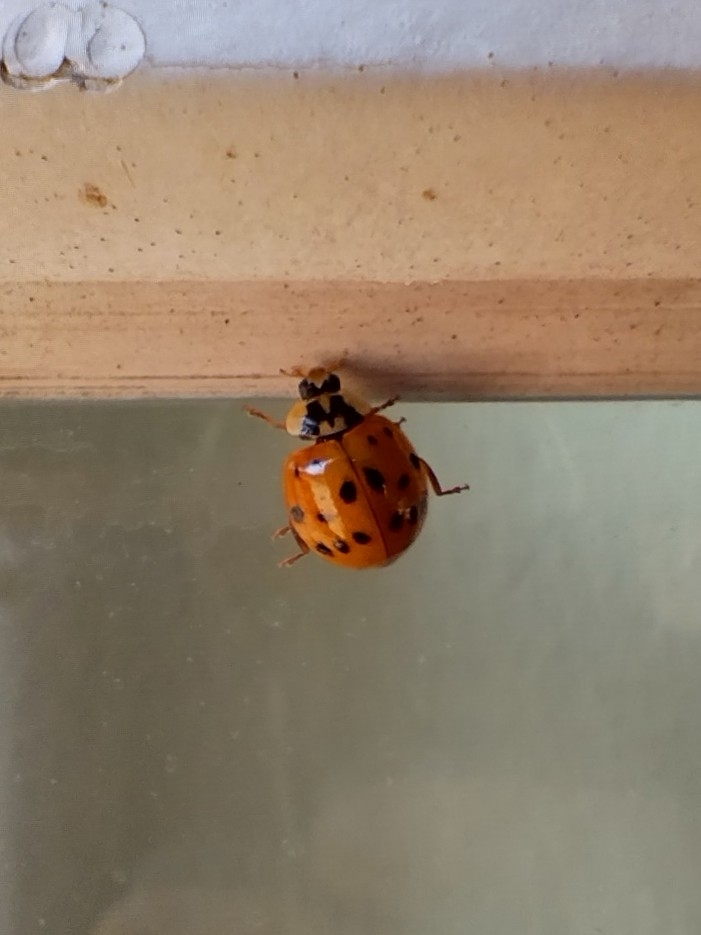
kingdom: Animalia
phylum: Arthropoda
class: Insecta
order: Coleoptera
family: Coccinellidae
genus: Harmonia
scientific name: Harmonia axyridis
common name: Harlequin ladybird
